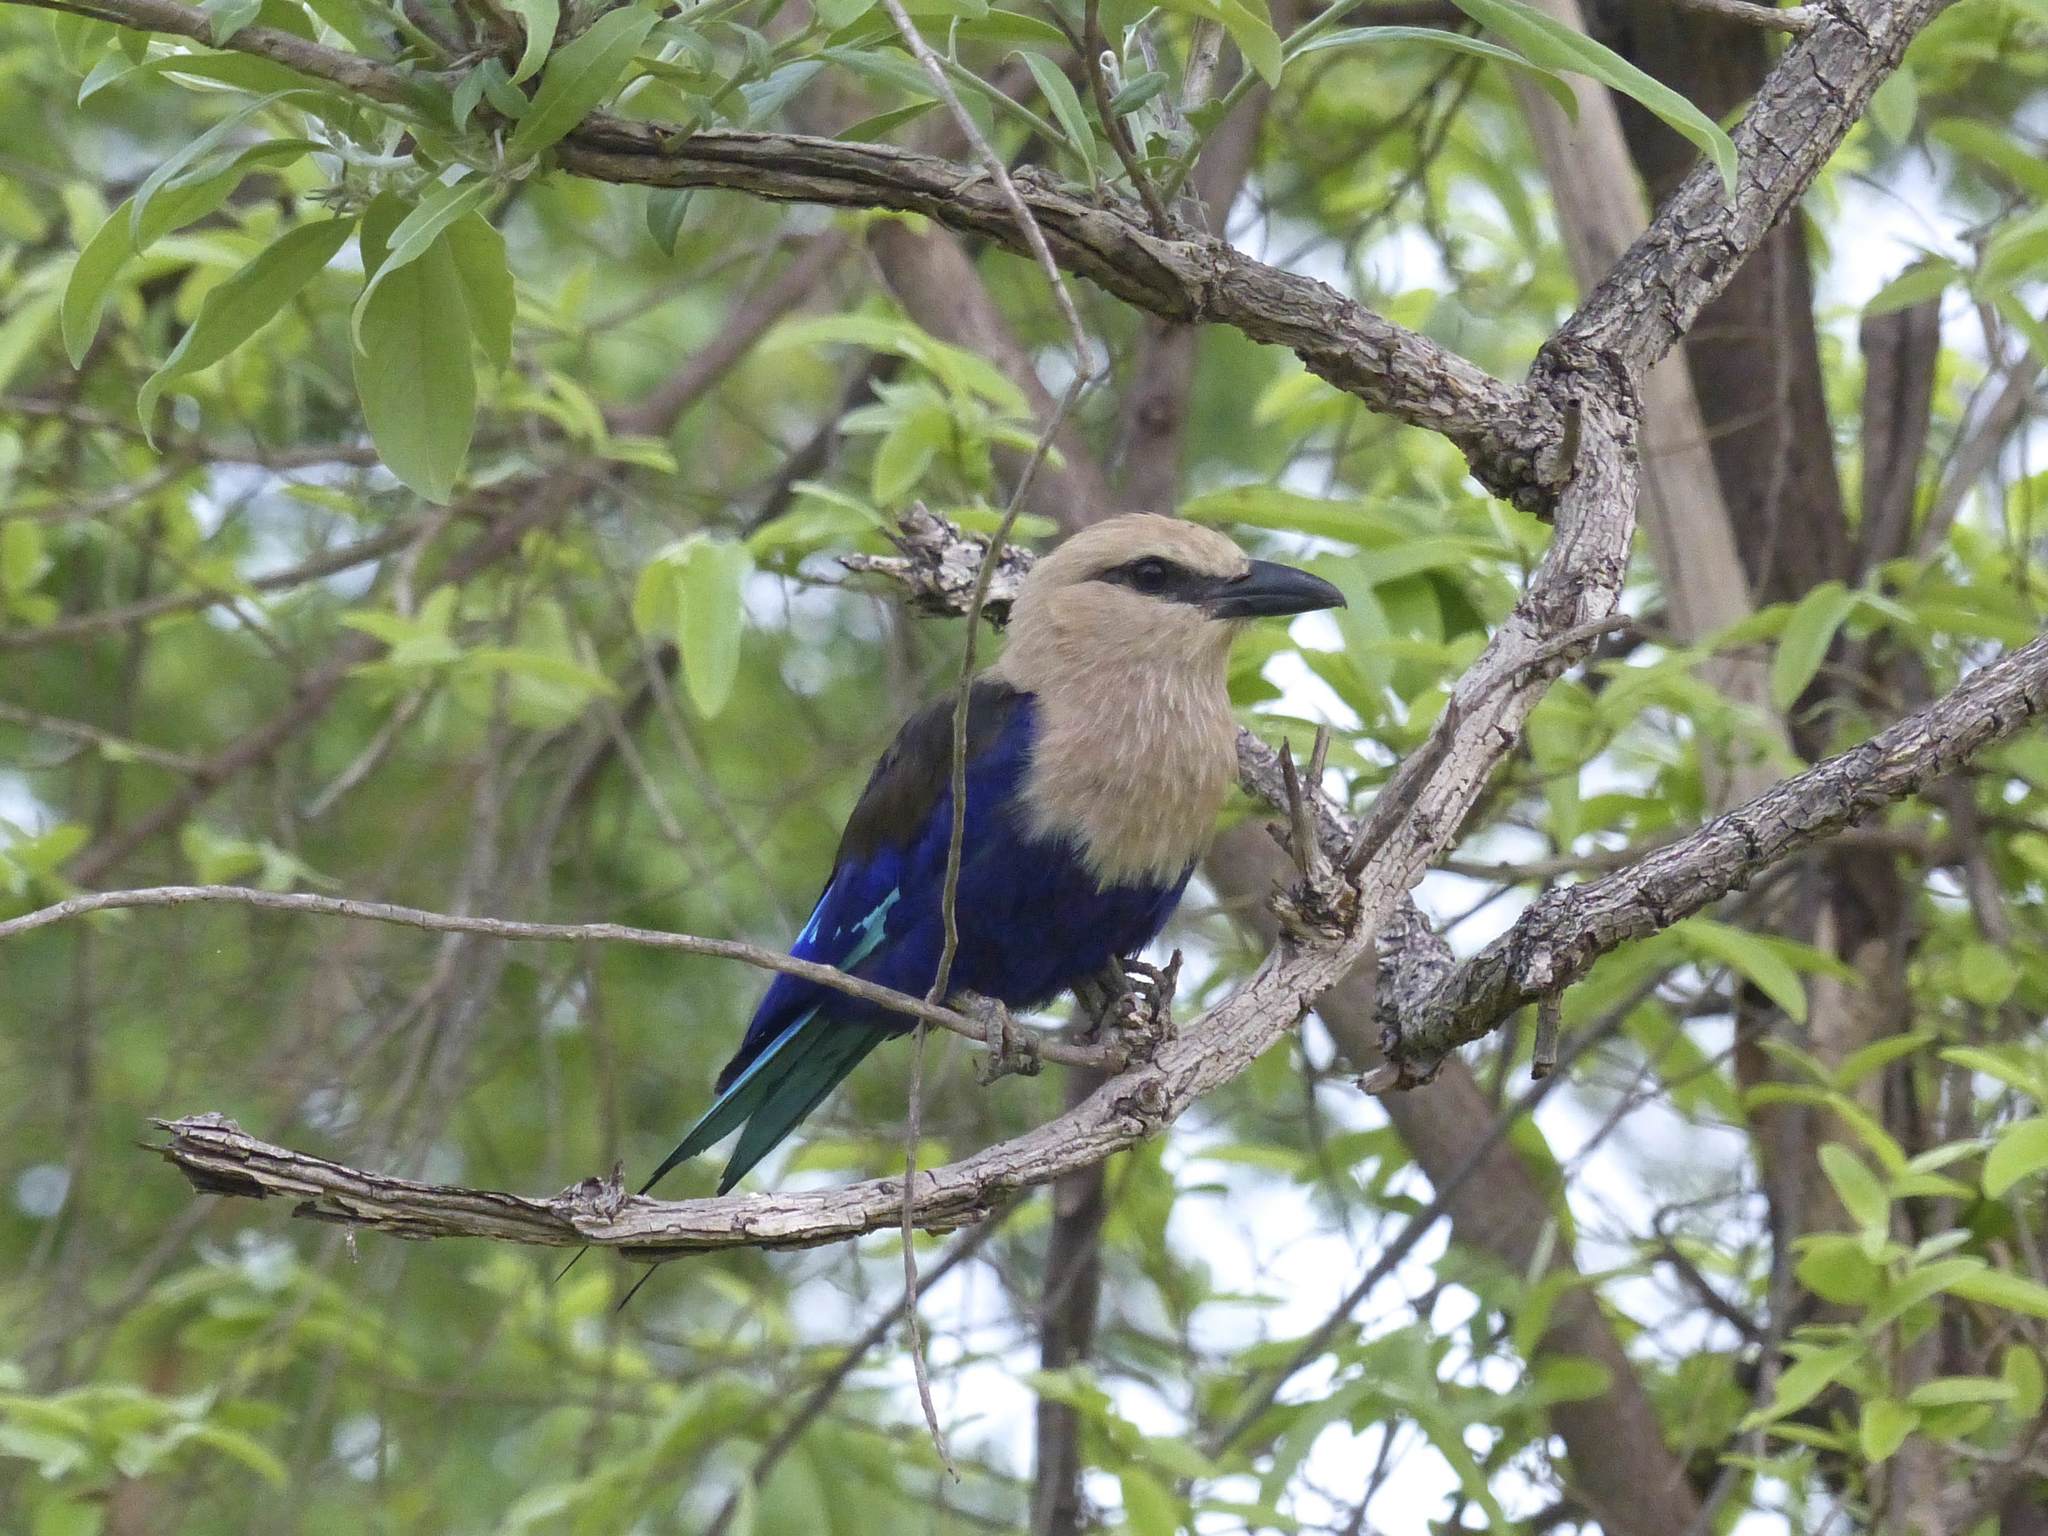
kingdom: Animalia
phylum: Chordata
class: Aves
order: Coraciiformes
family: Coraciidae
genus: Coracias
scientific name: Coracias cyanogaster
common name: Blue-bellied roller
